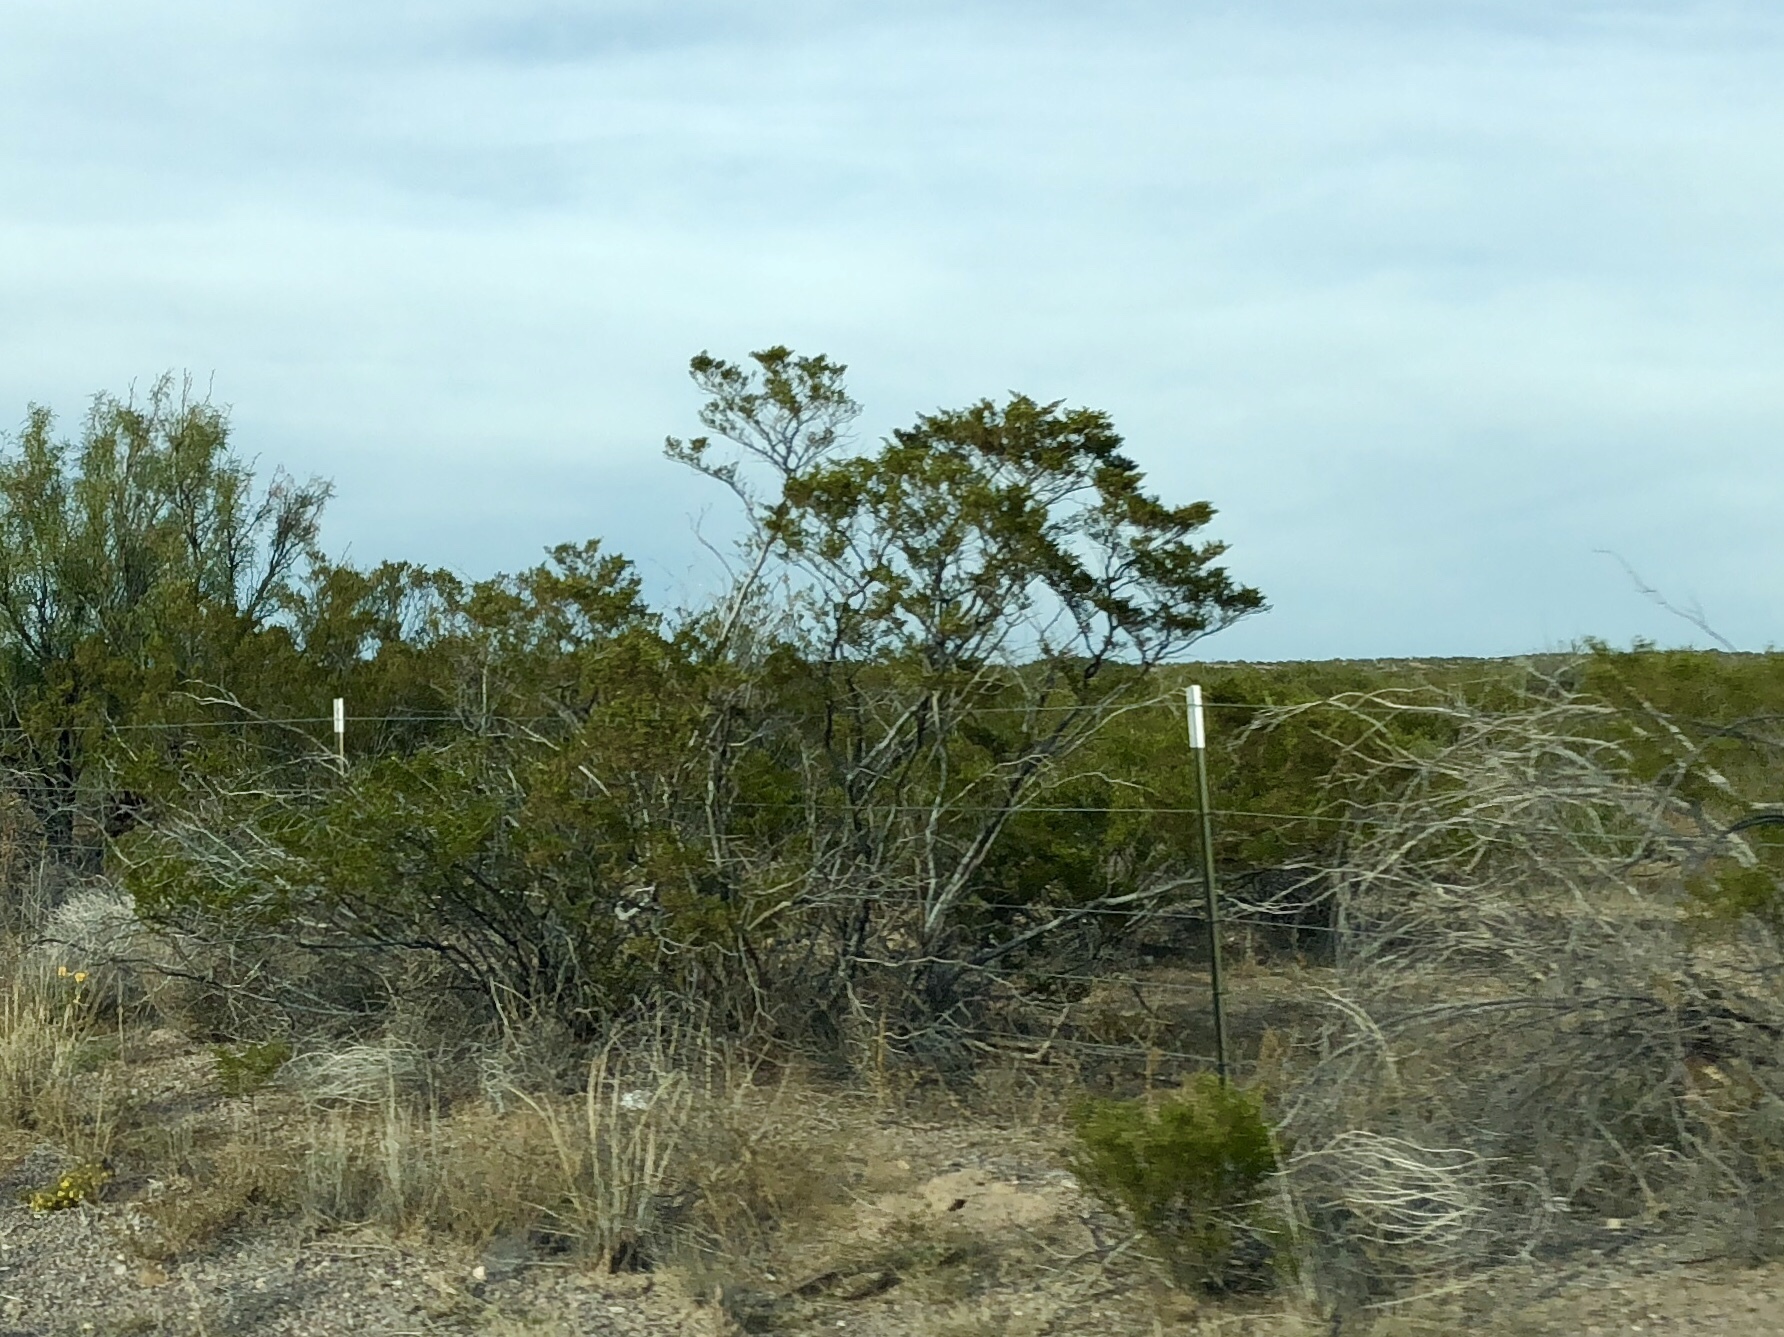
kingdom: Plantae
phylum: Tracheophyta
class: Magnoliopsida
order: Zygophyllales
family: Zygophyllaceae
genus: Larrea
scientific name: Larrea tridentata
